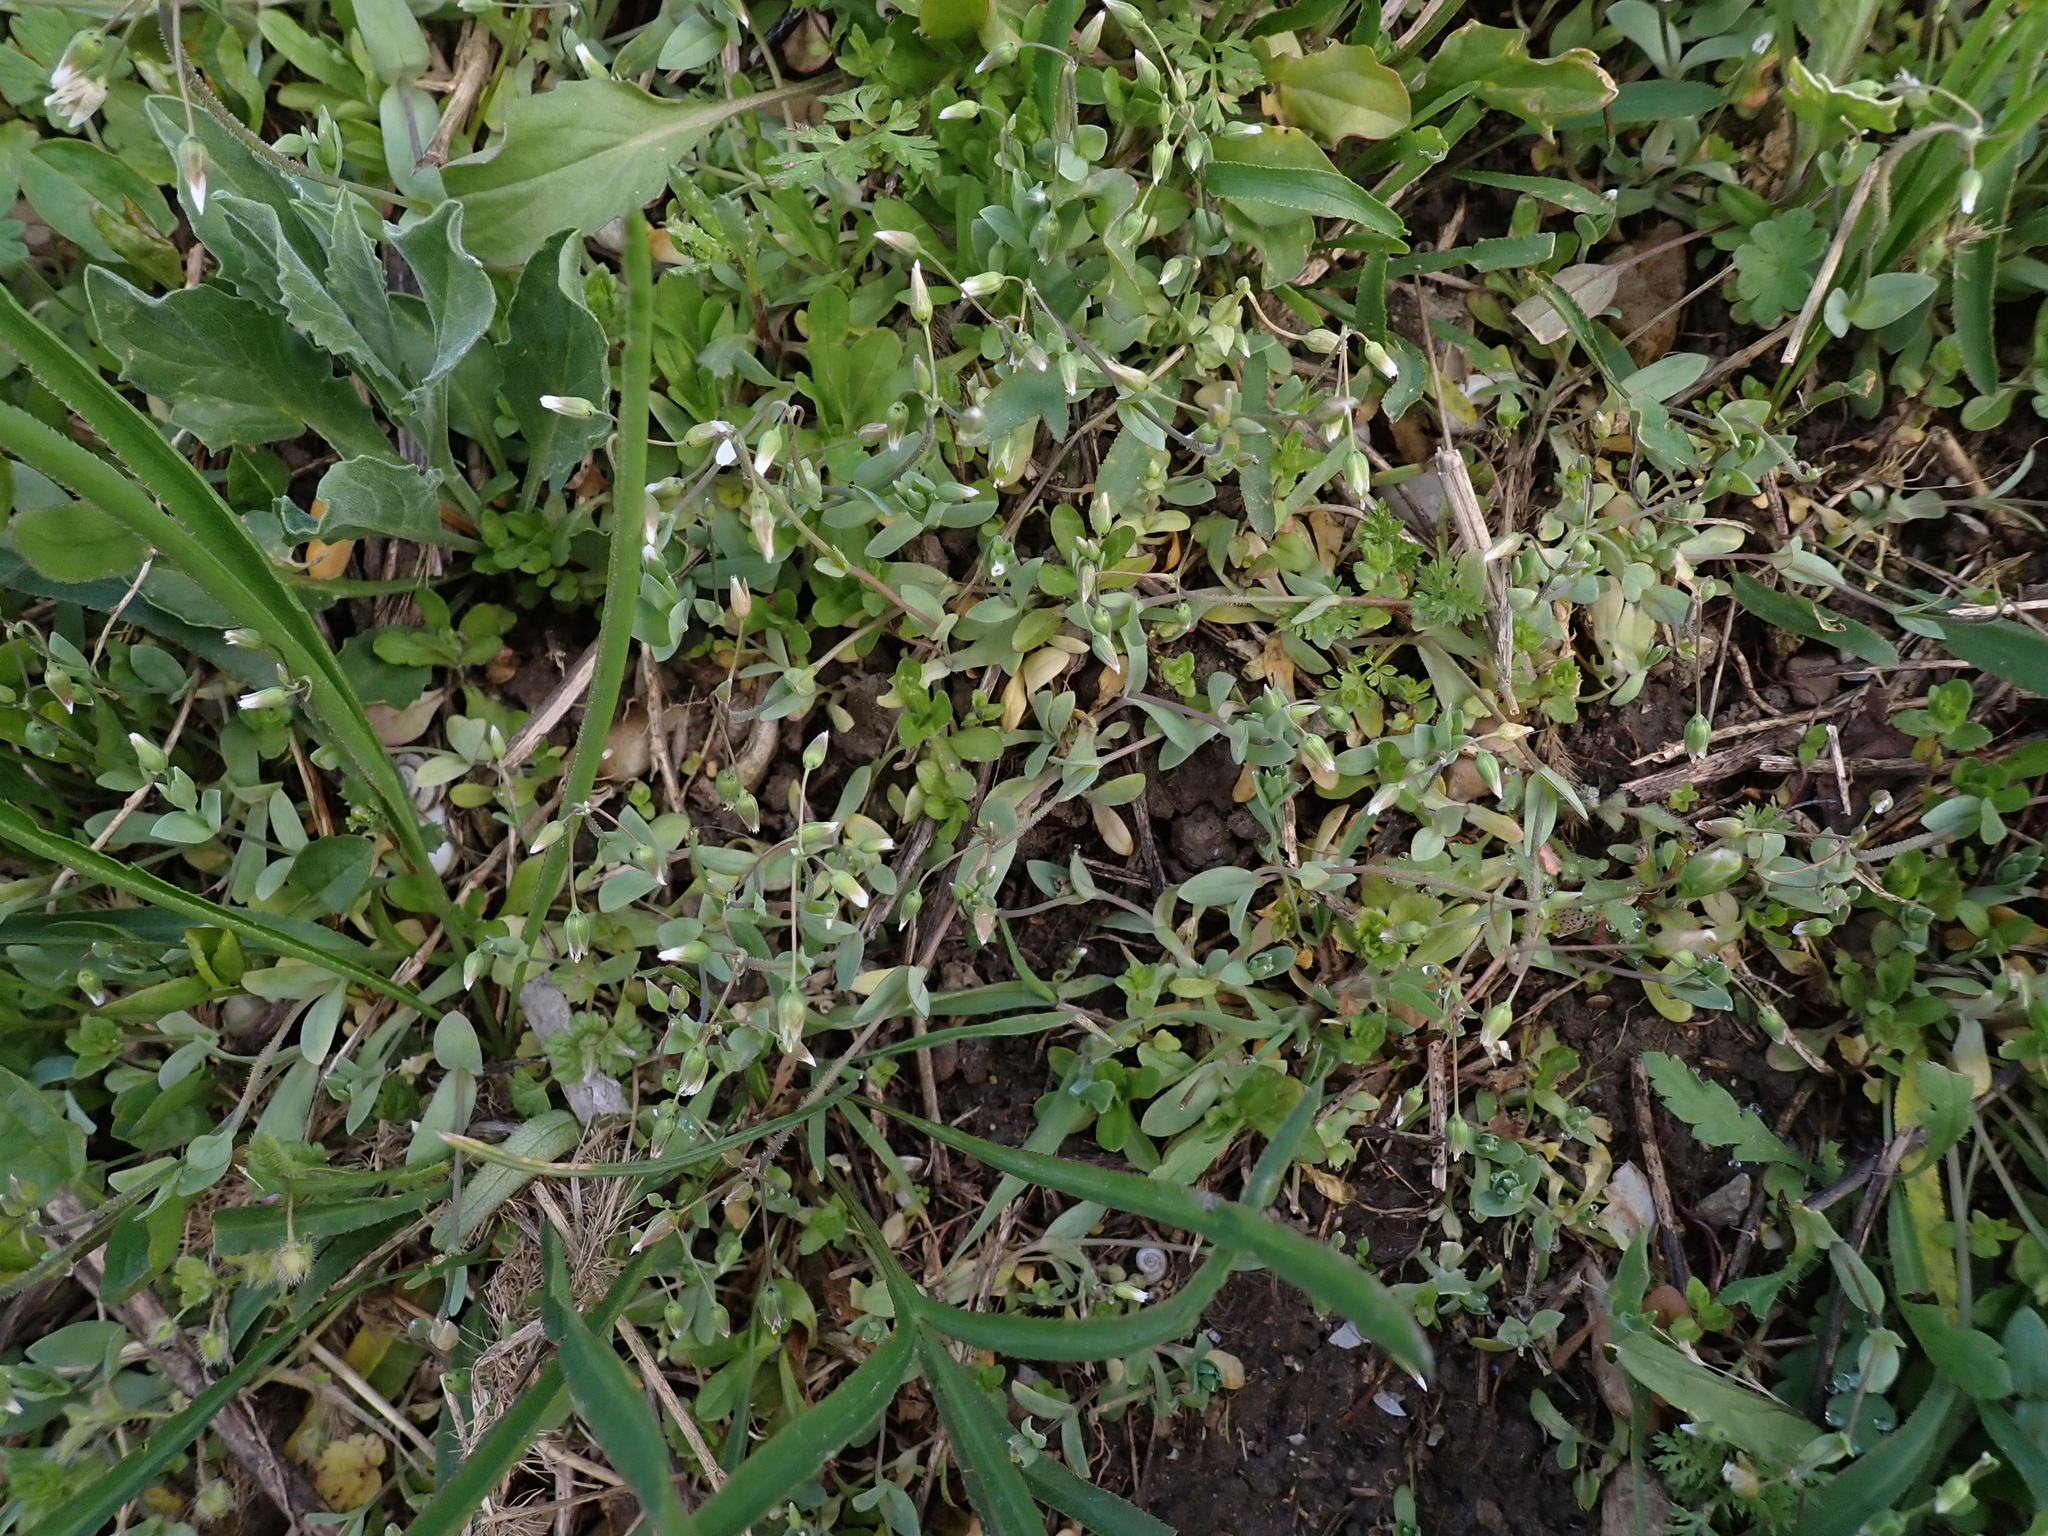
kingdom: Plantae
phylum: Tracheophyta
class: Magnoliopsida
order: Caryophyllales
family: Caryophyllaceae
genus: Holosteum
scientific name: Holosteum umbellatum
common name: Jagged chickweed
